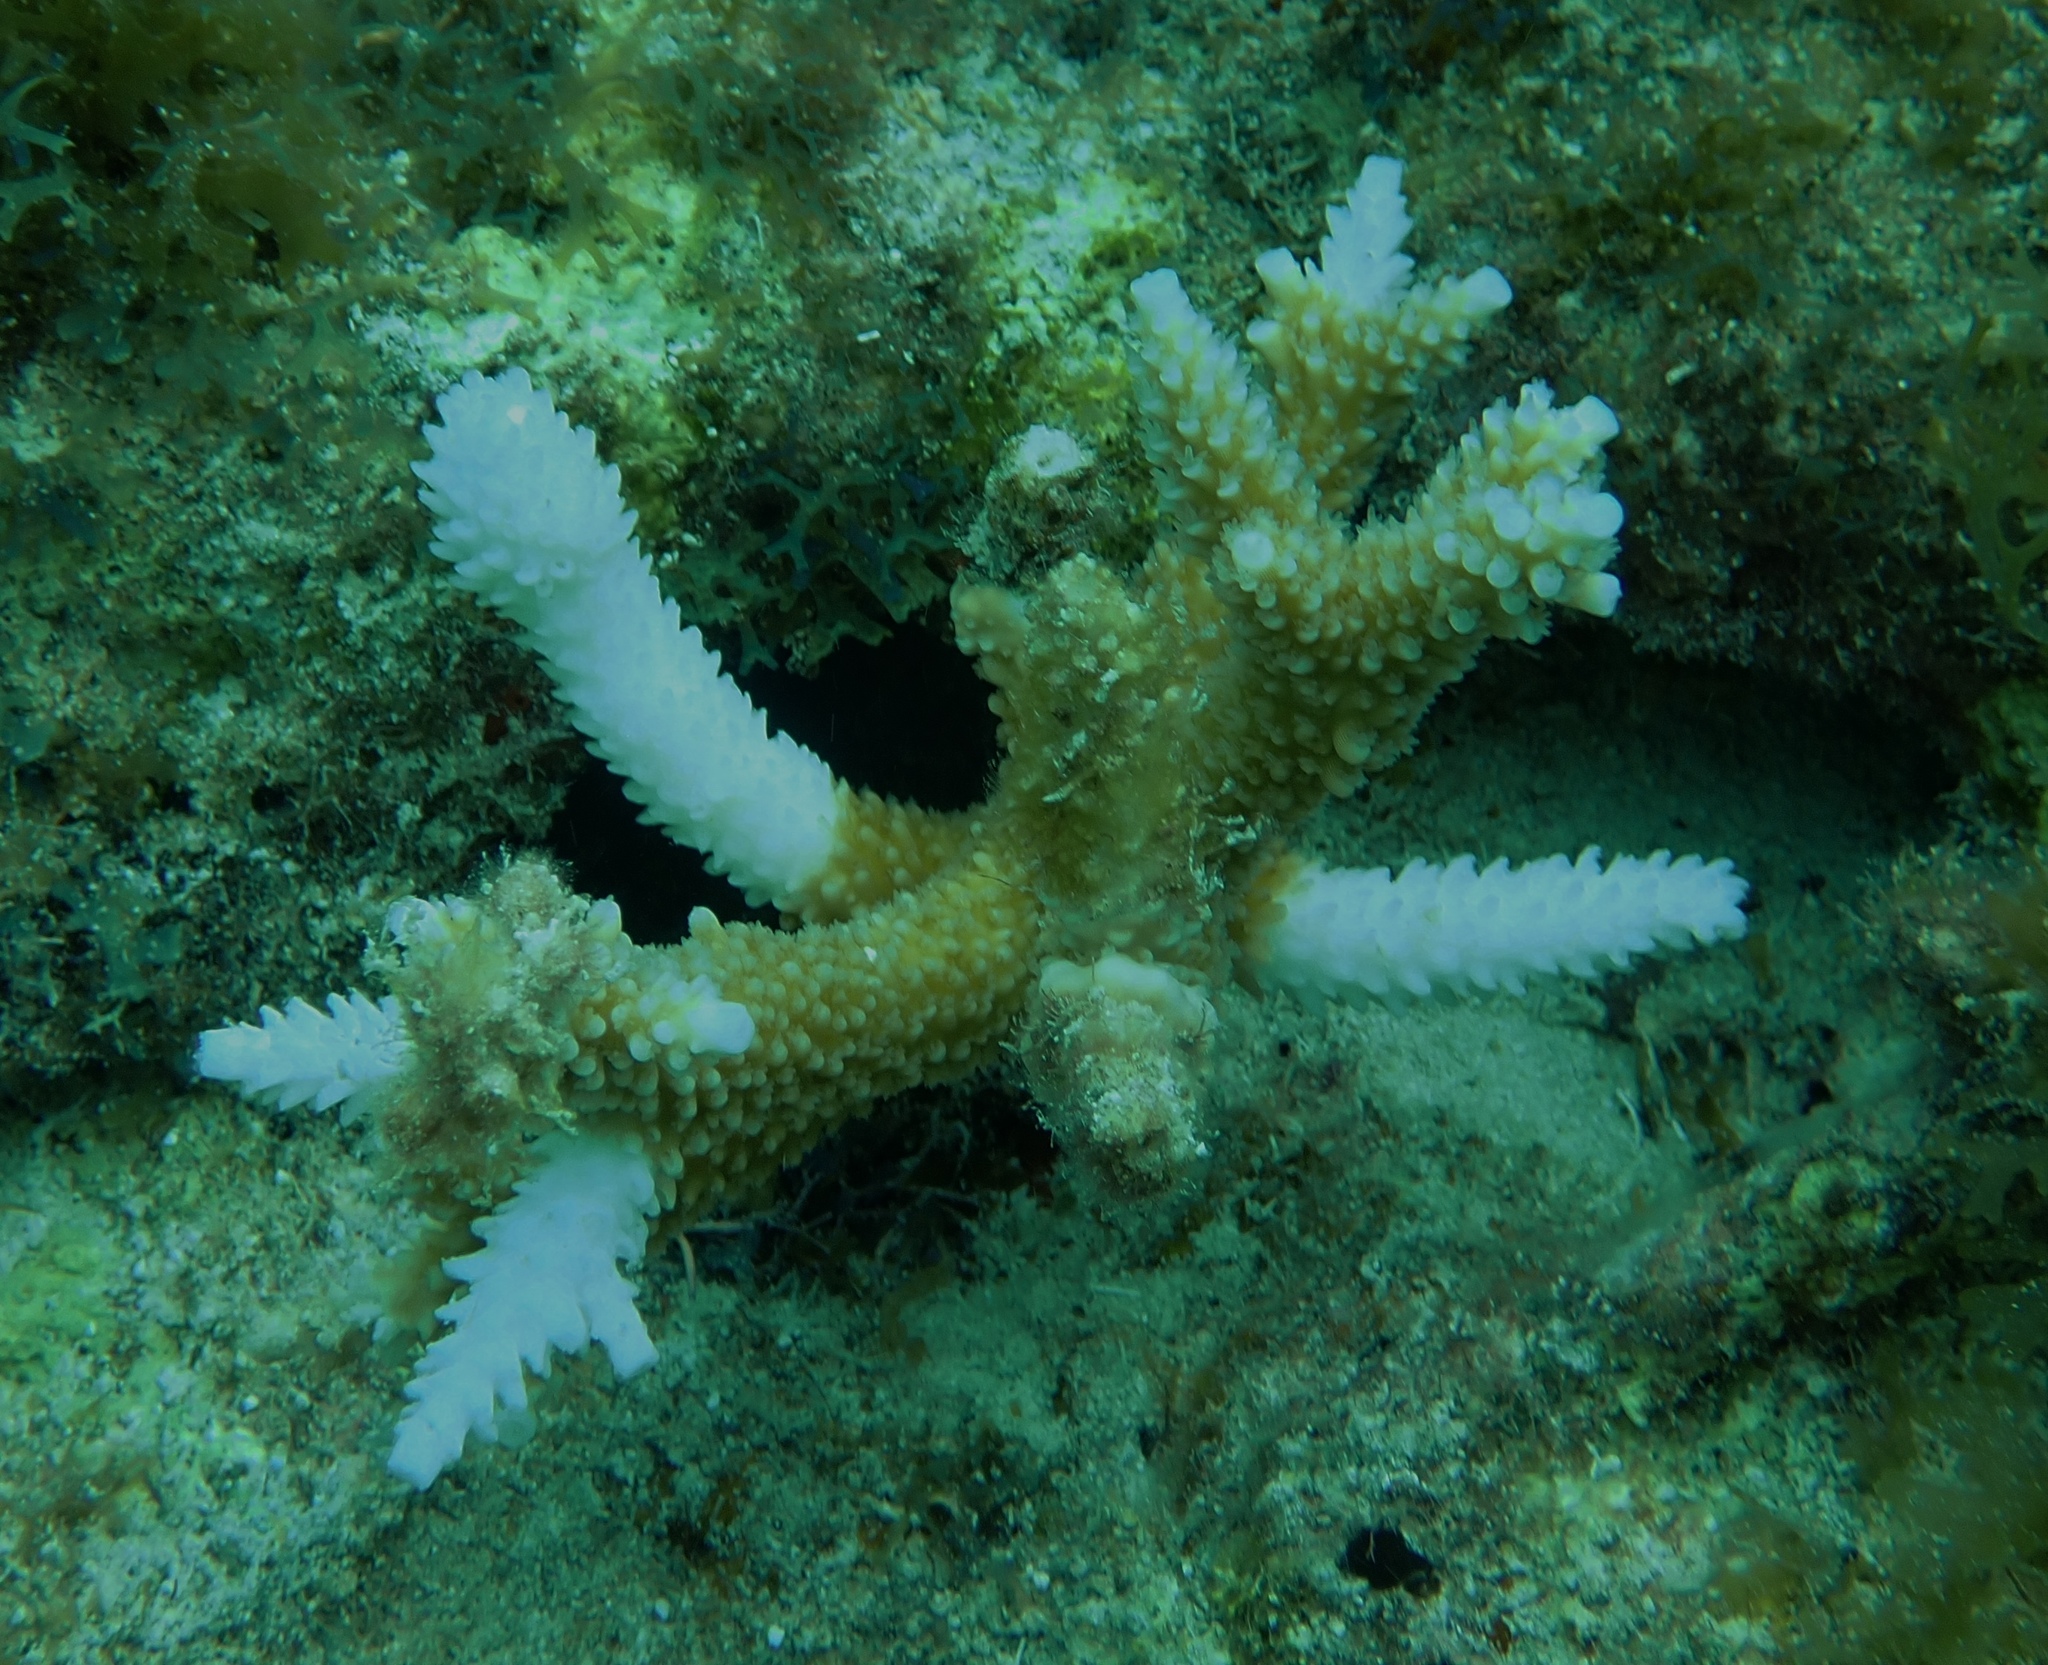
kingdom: Animalia
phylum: Cnidaria
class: Anthozoa
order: Scleractinia
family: Acroporidae
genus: Acropora
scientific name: Acropora cervicornis
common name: Staghorn coral
